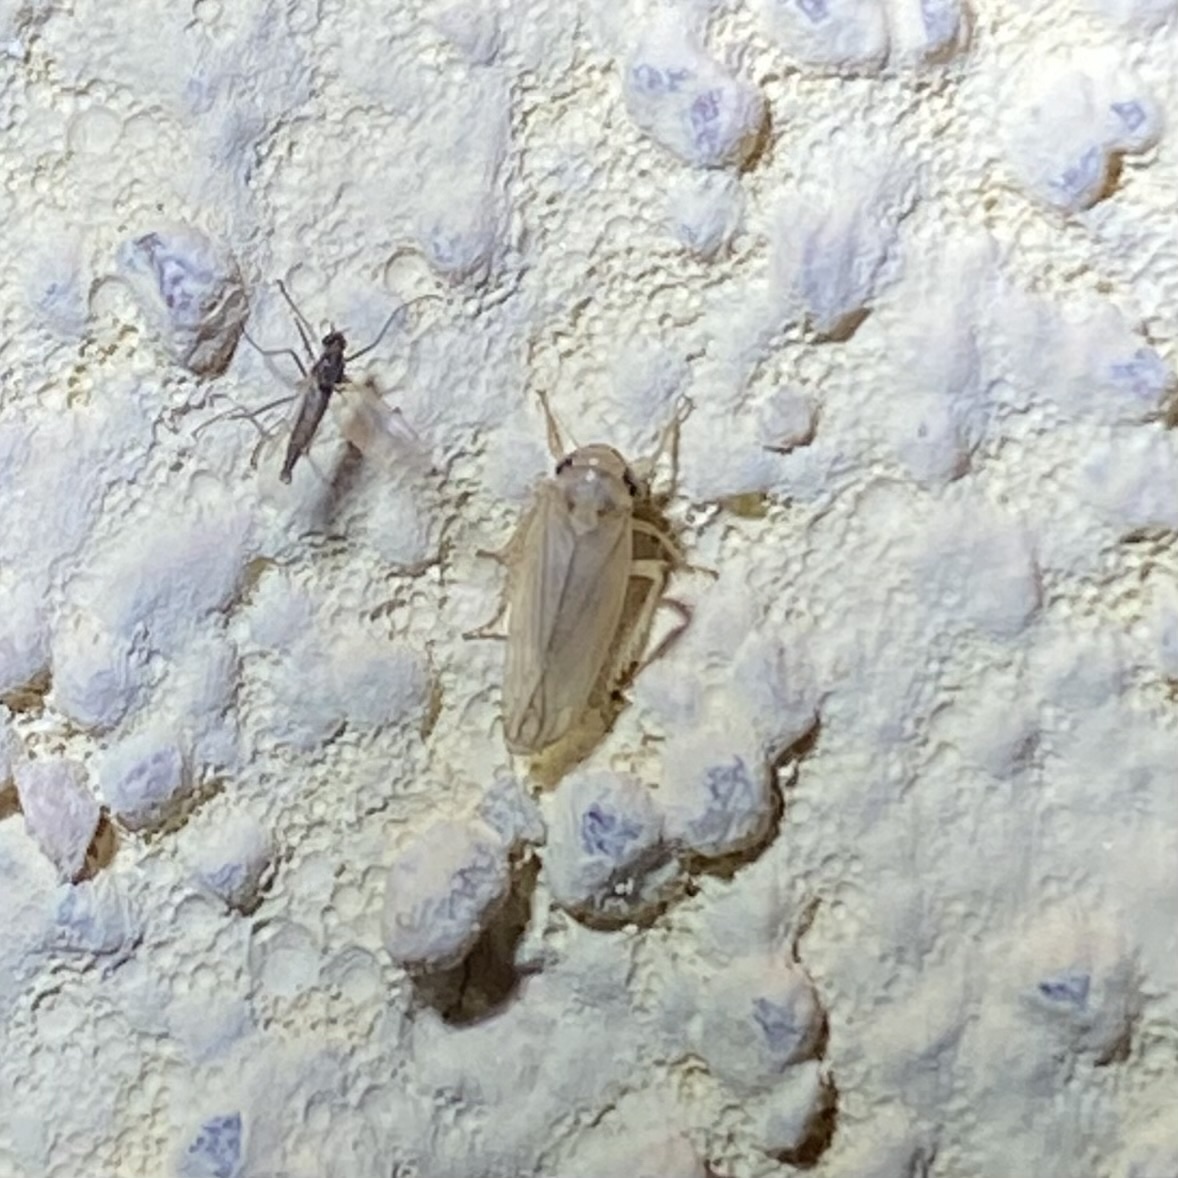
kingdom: Animalia
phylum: Arthropoda
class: Insecta
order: Hemiptera
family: Cicadellidae
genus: Exitianus
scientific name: Exitianus
